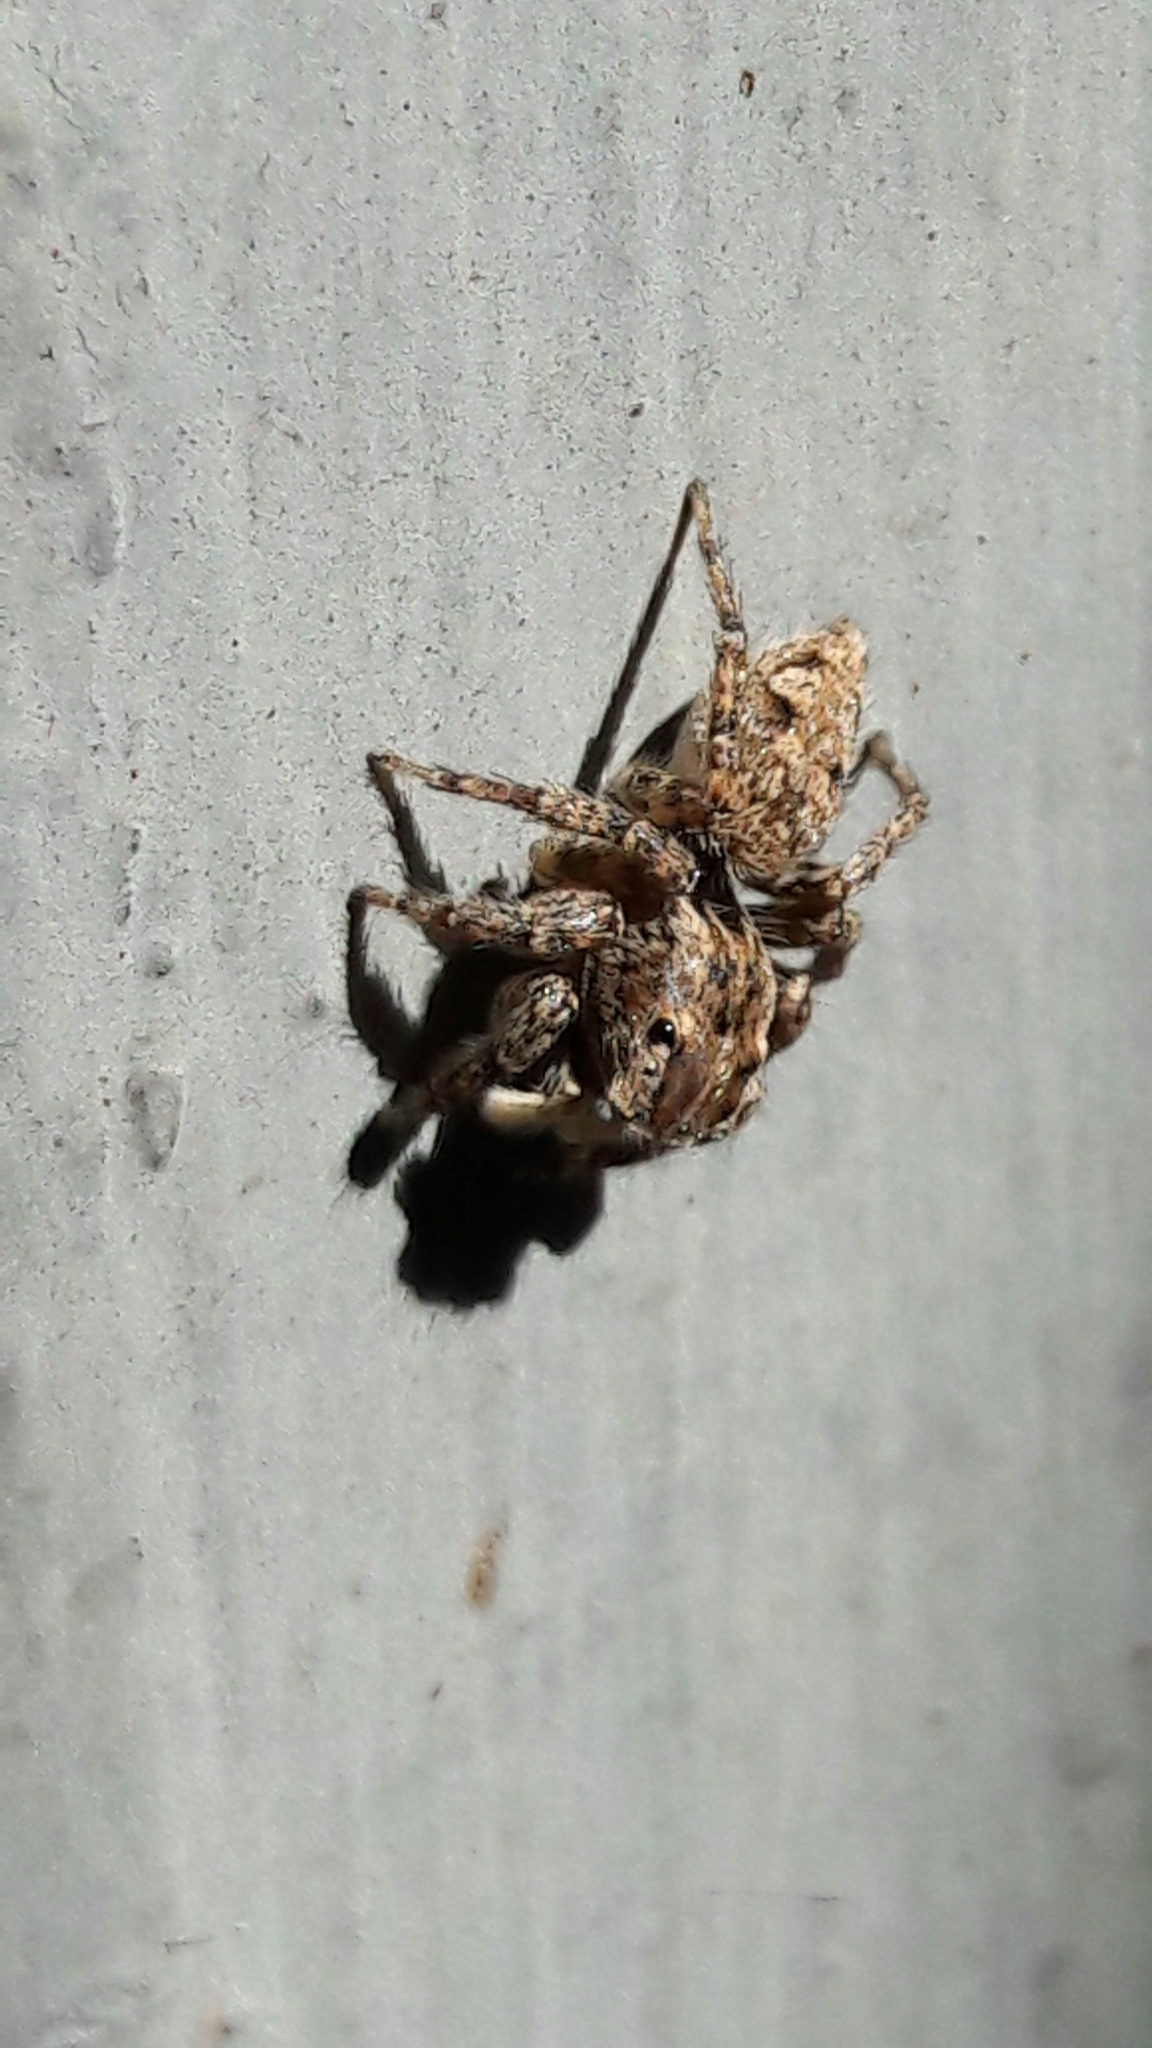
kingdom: Animalia
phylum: Arthropoda
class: Arachnida
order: Araneae
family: Salticidae
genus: Sumampattus
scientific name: Sumampattus quinqueradiatus
